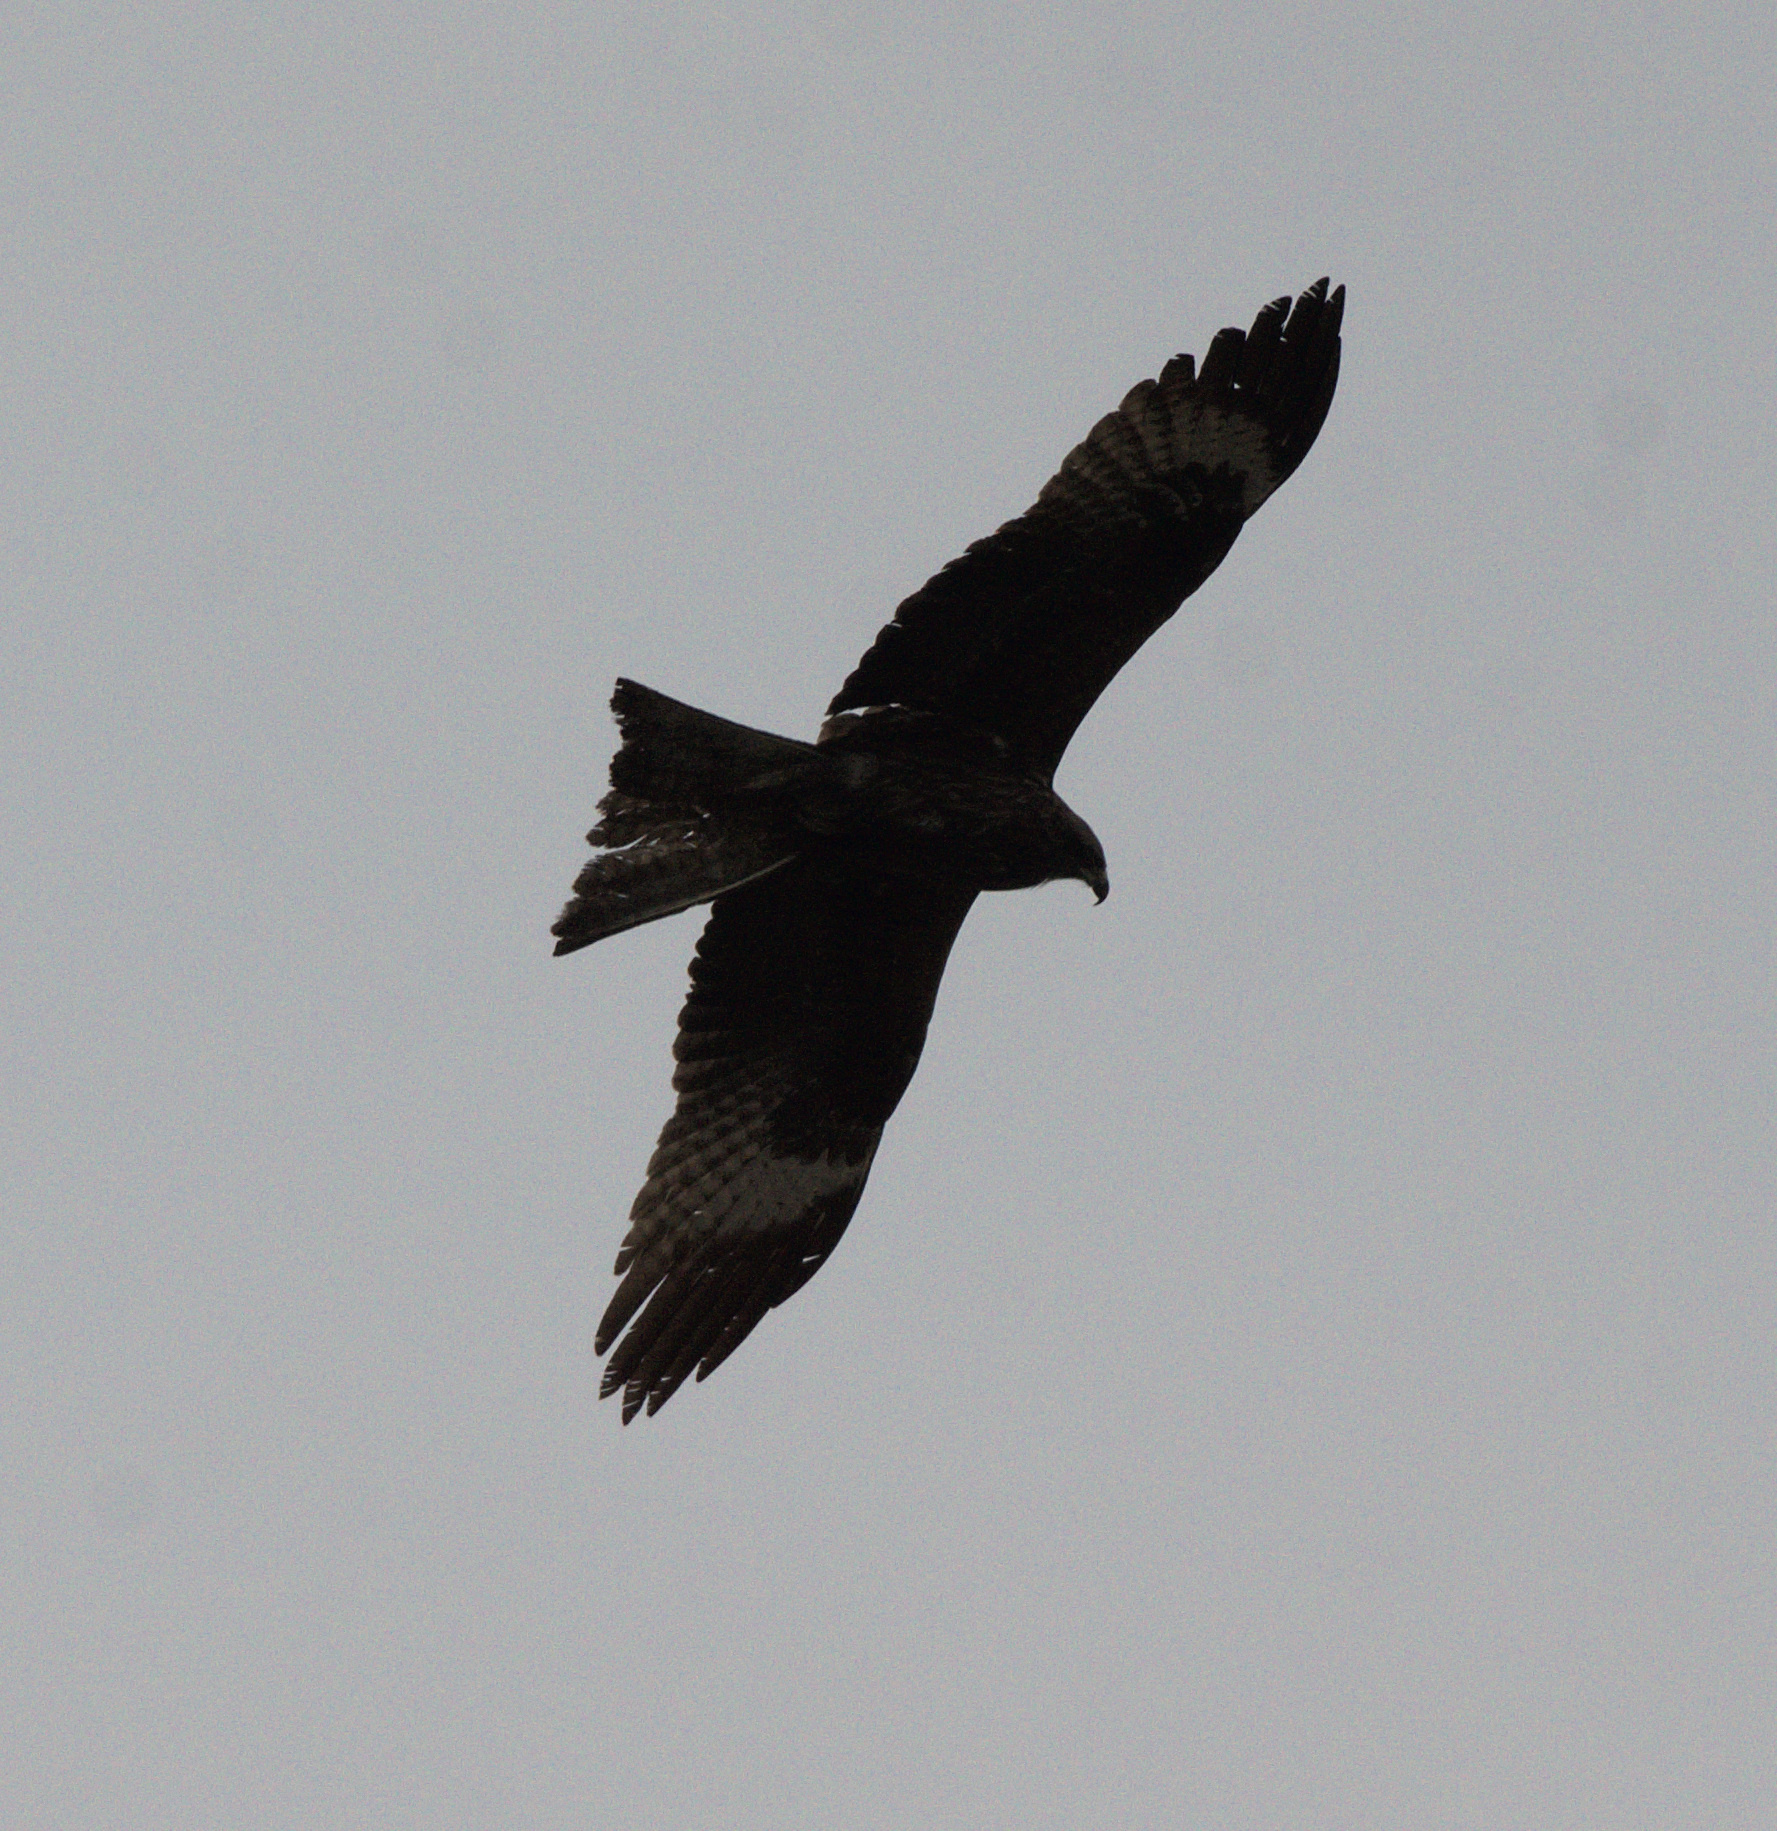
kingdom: Animalia
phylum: Chordata
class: Aves
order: Accipitriformes
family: Accipitridae
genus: Milvus
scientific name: Milvus migrans
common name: Black kite
